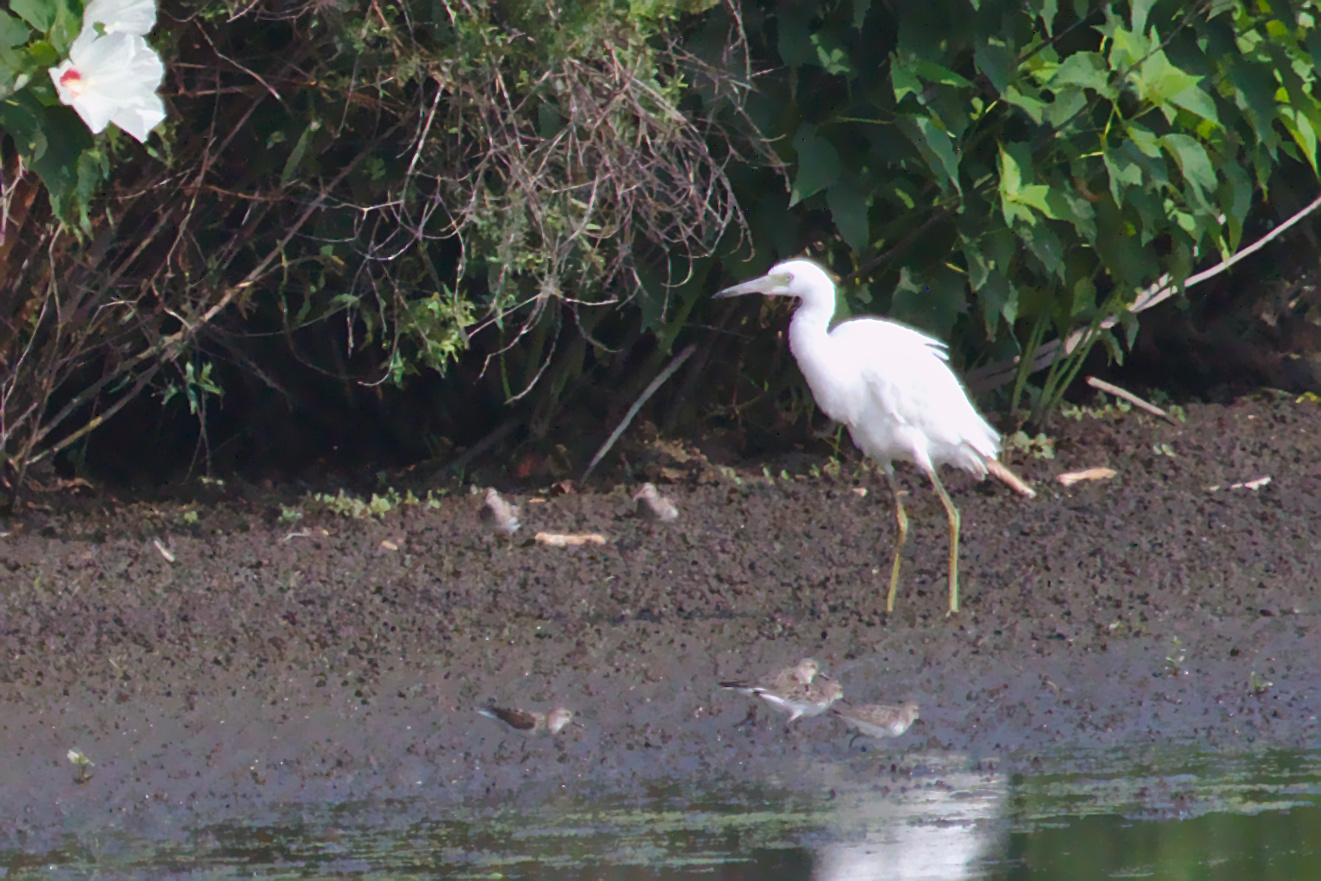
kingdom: Animalia
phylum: Chordata
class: Aves
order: Pelecaniformes
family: Ardeidae
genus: Egretta
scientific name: Egretta caerulea
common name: Little blue heron
